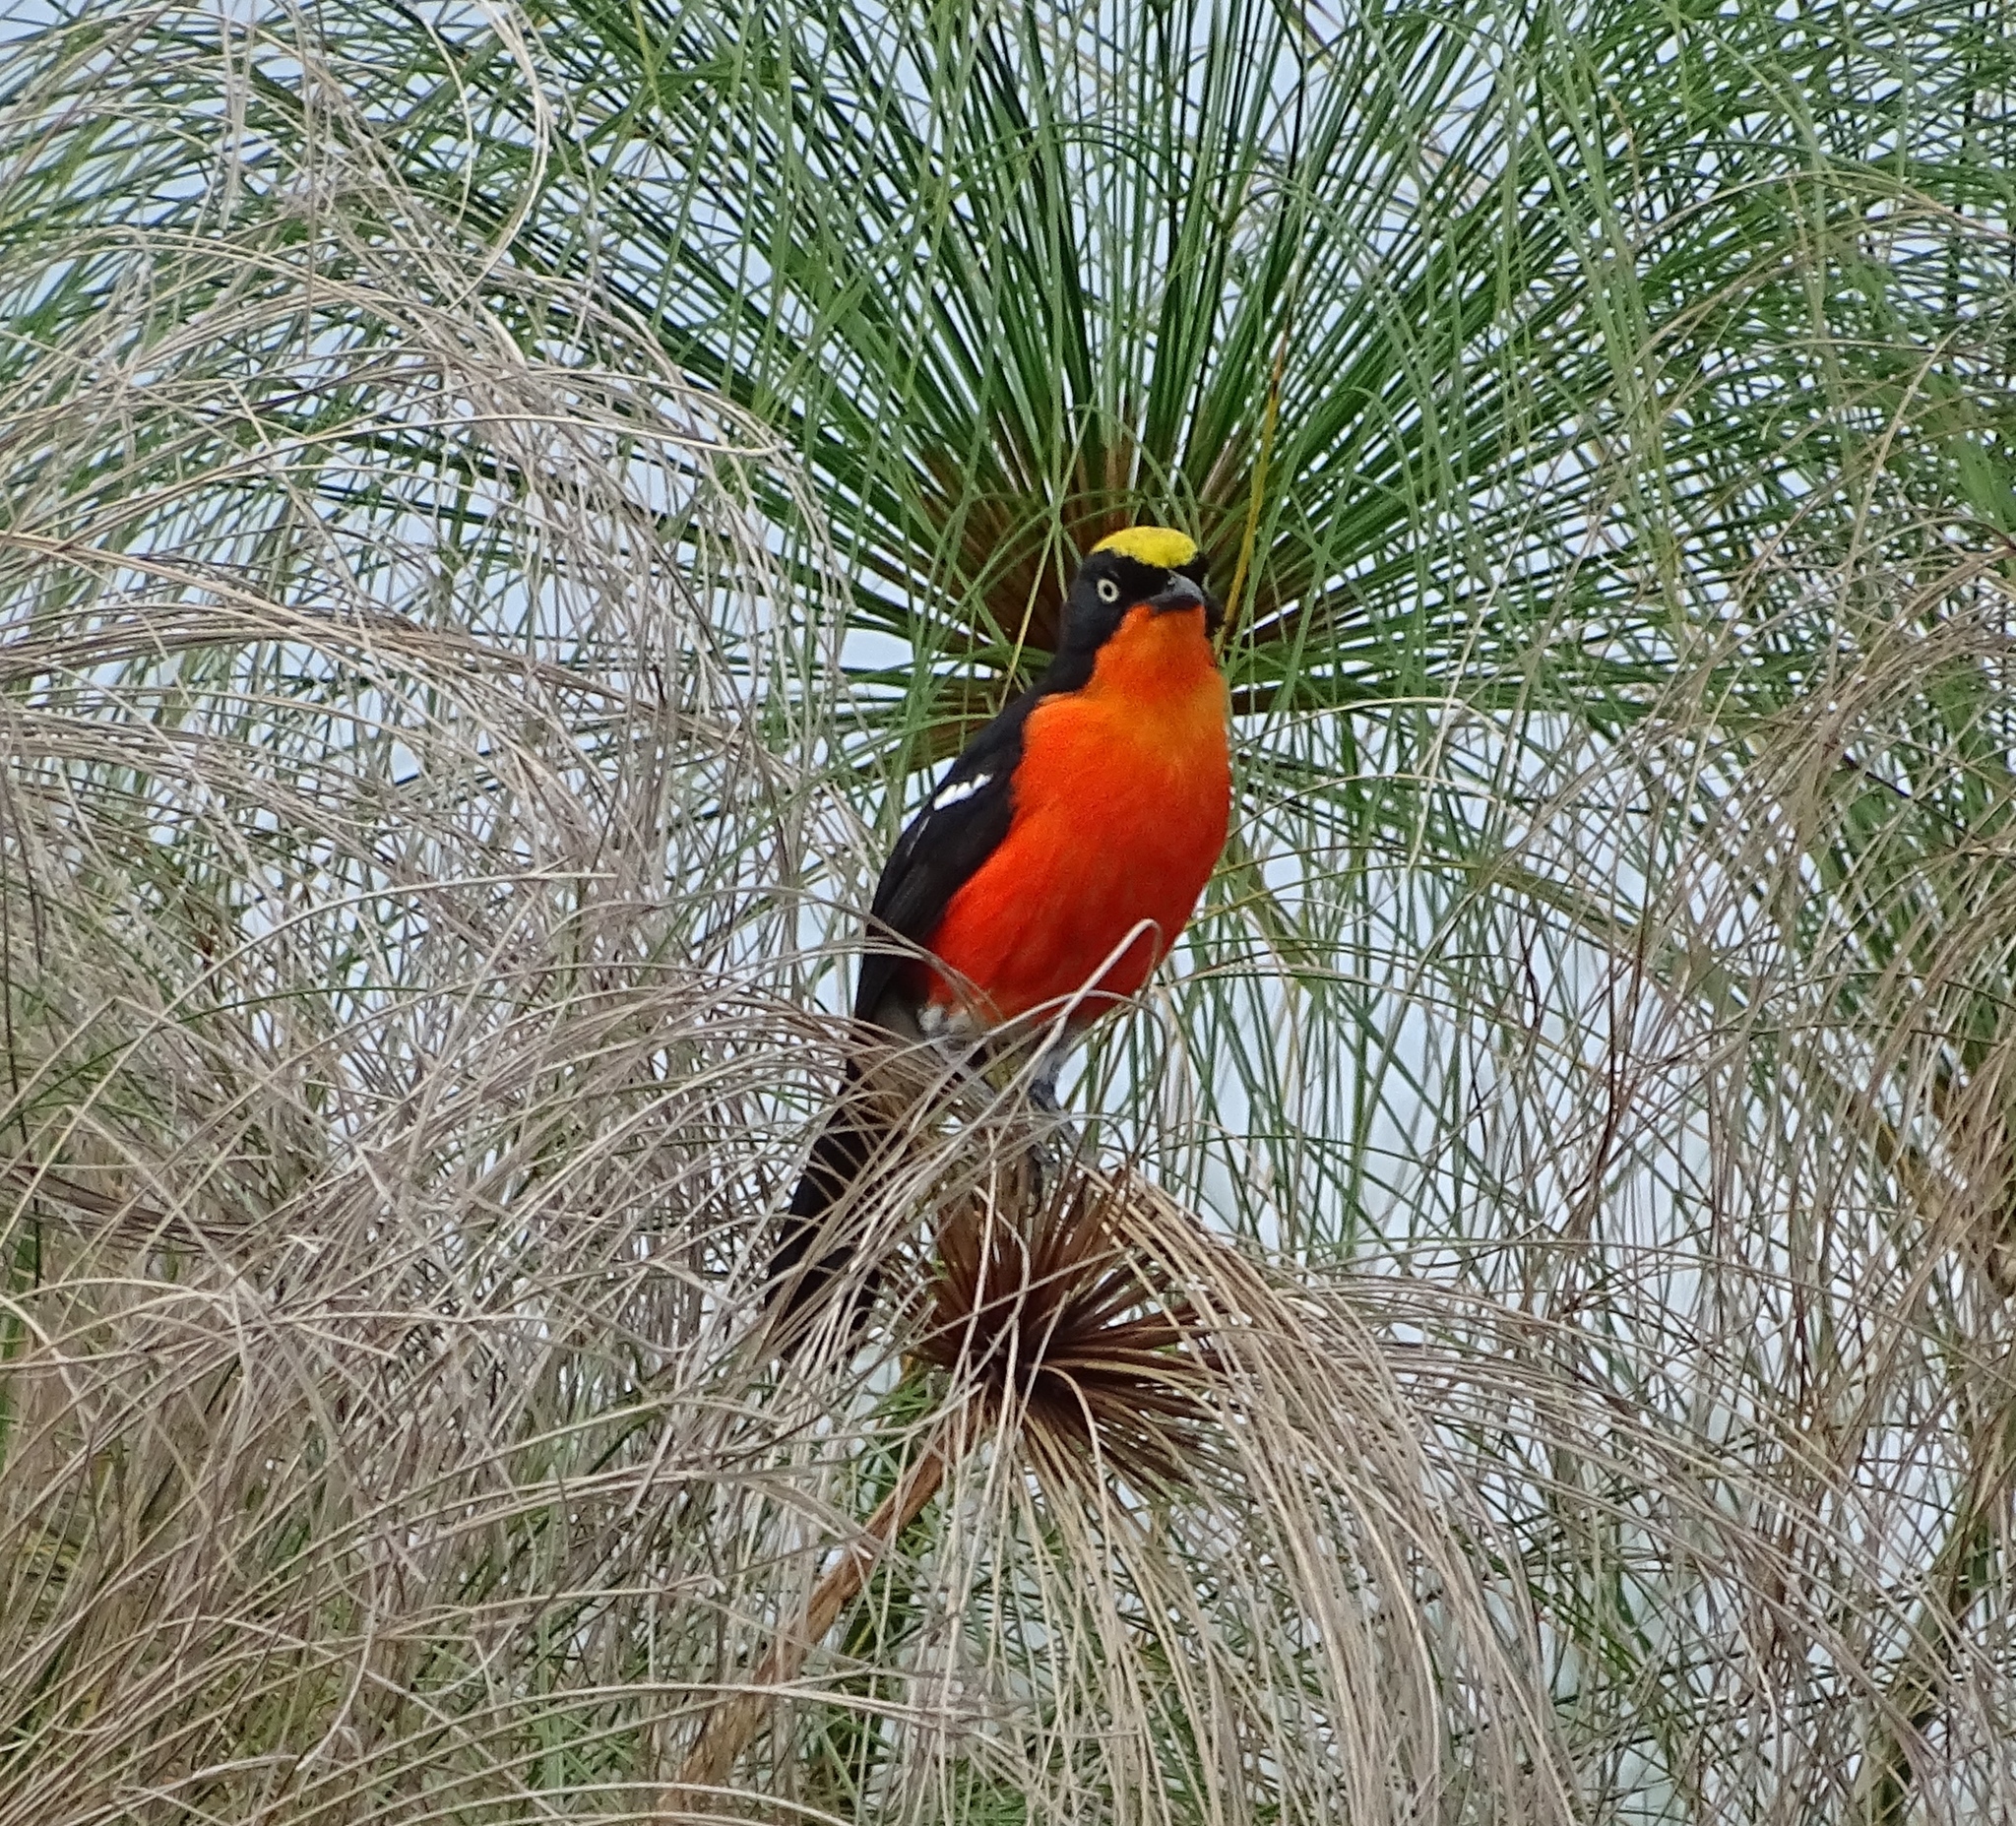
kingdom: Animalia
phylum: Chordata
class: Aves
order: Passeriformes
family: Malaconotidae
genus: Laniarius
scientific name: Laniarius mufumbiri
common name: Papyrus gonolek
